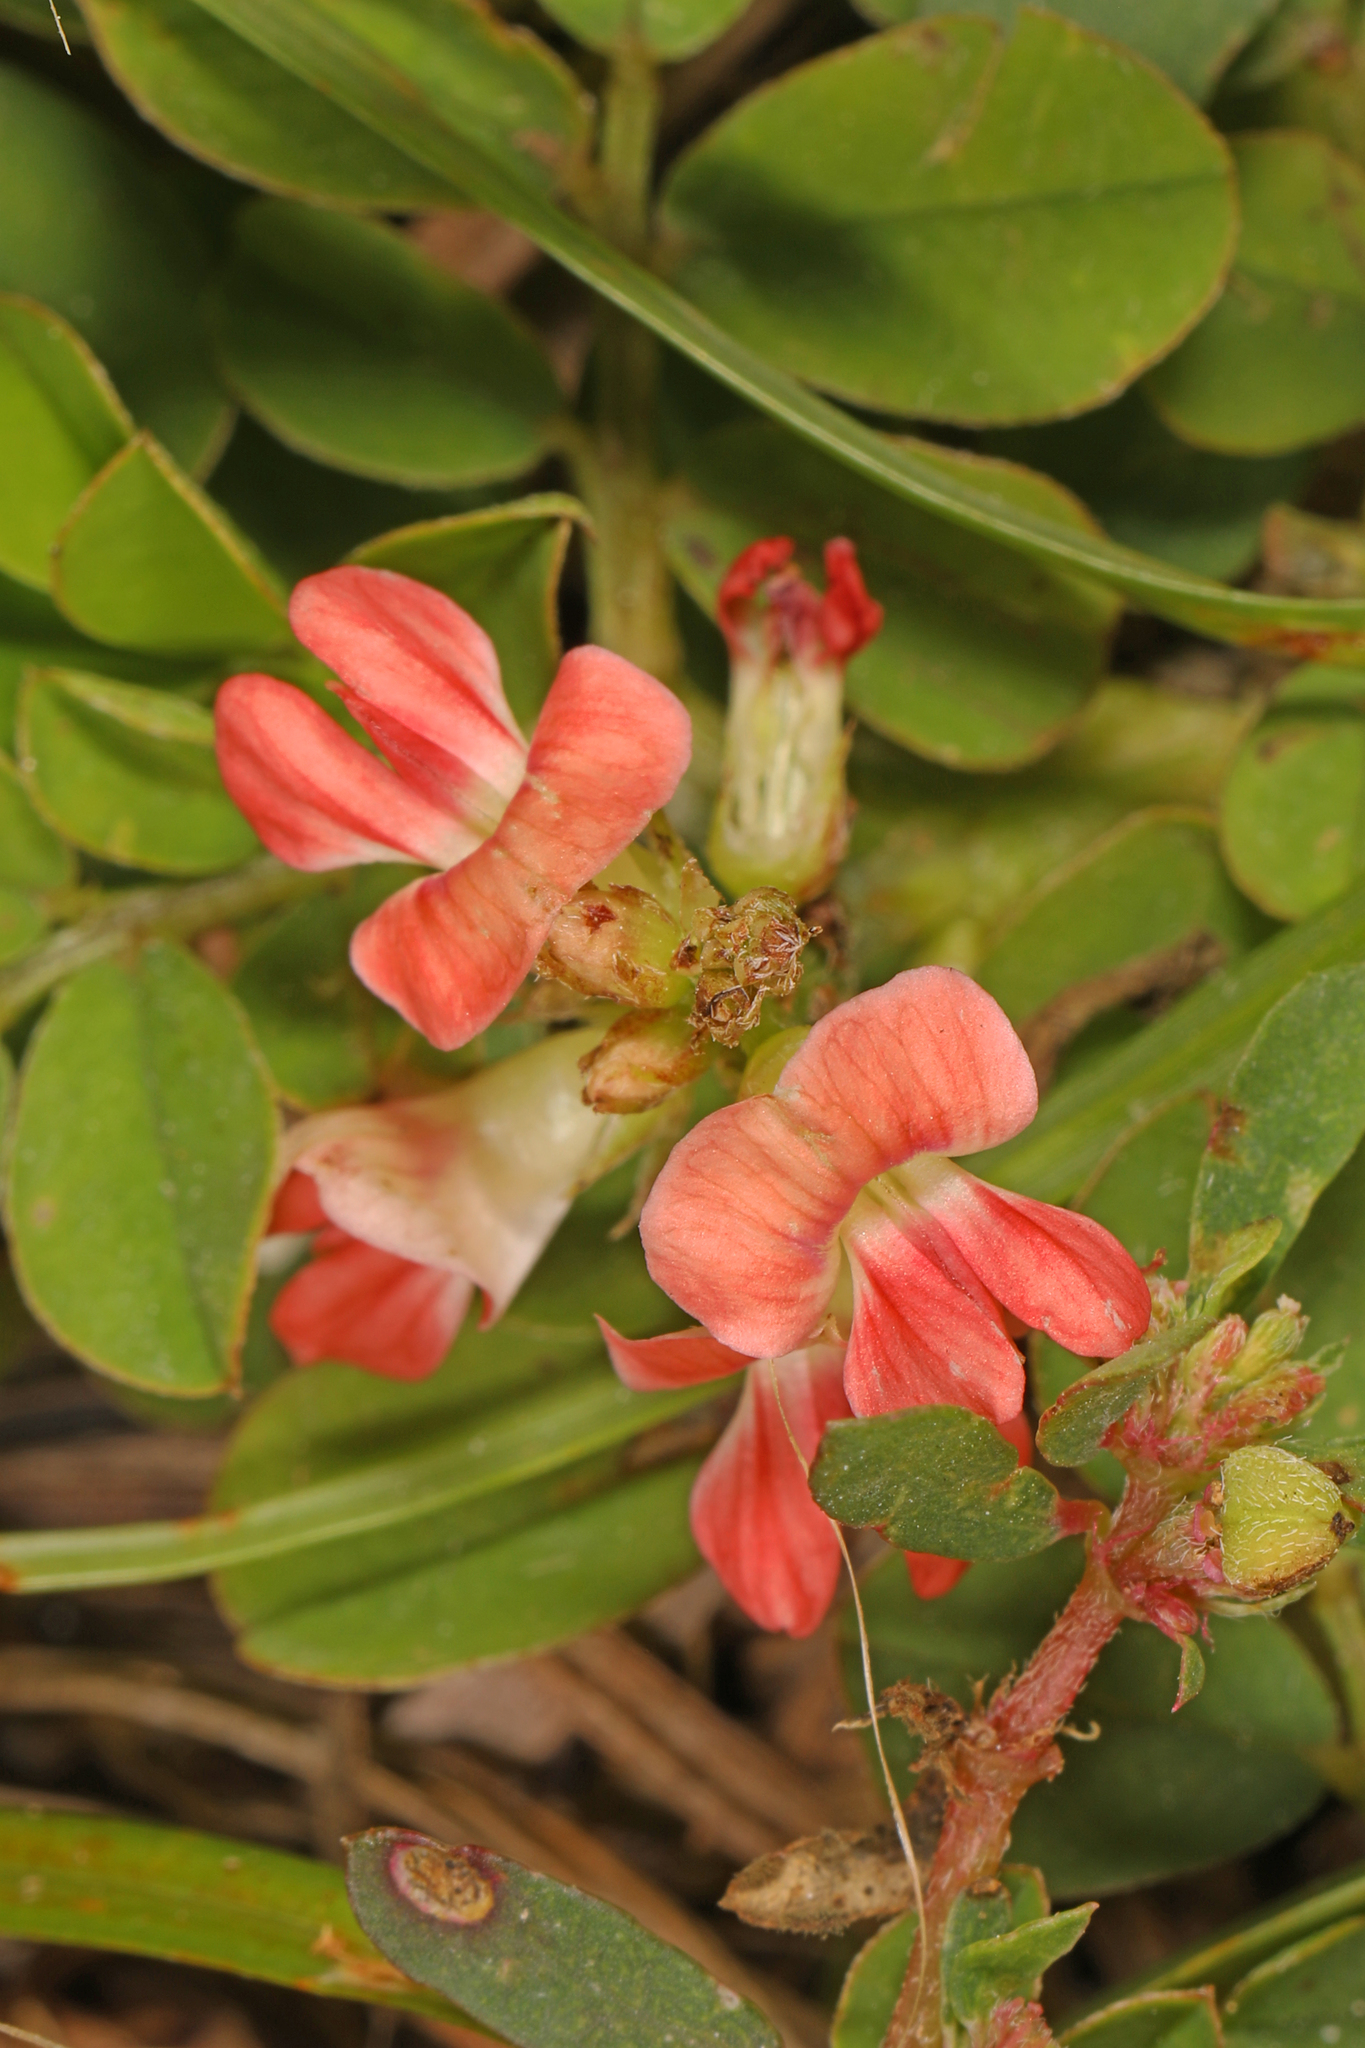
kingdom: Plantae
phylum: Tracheophyta
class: Magnoliopsida
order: Fabales
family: Fabaceae
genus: Indigofera
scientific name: Indigofera spicata
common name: Creeping indigo
